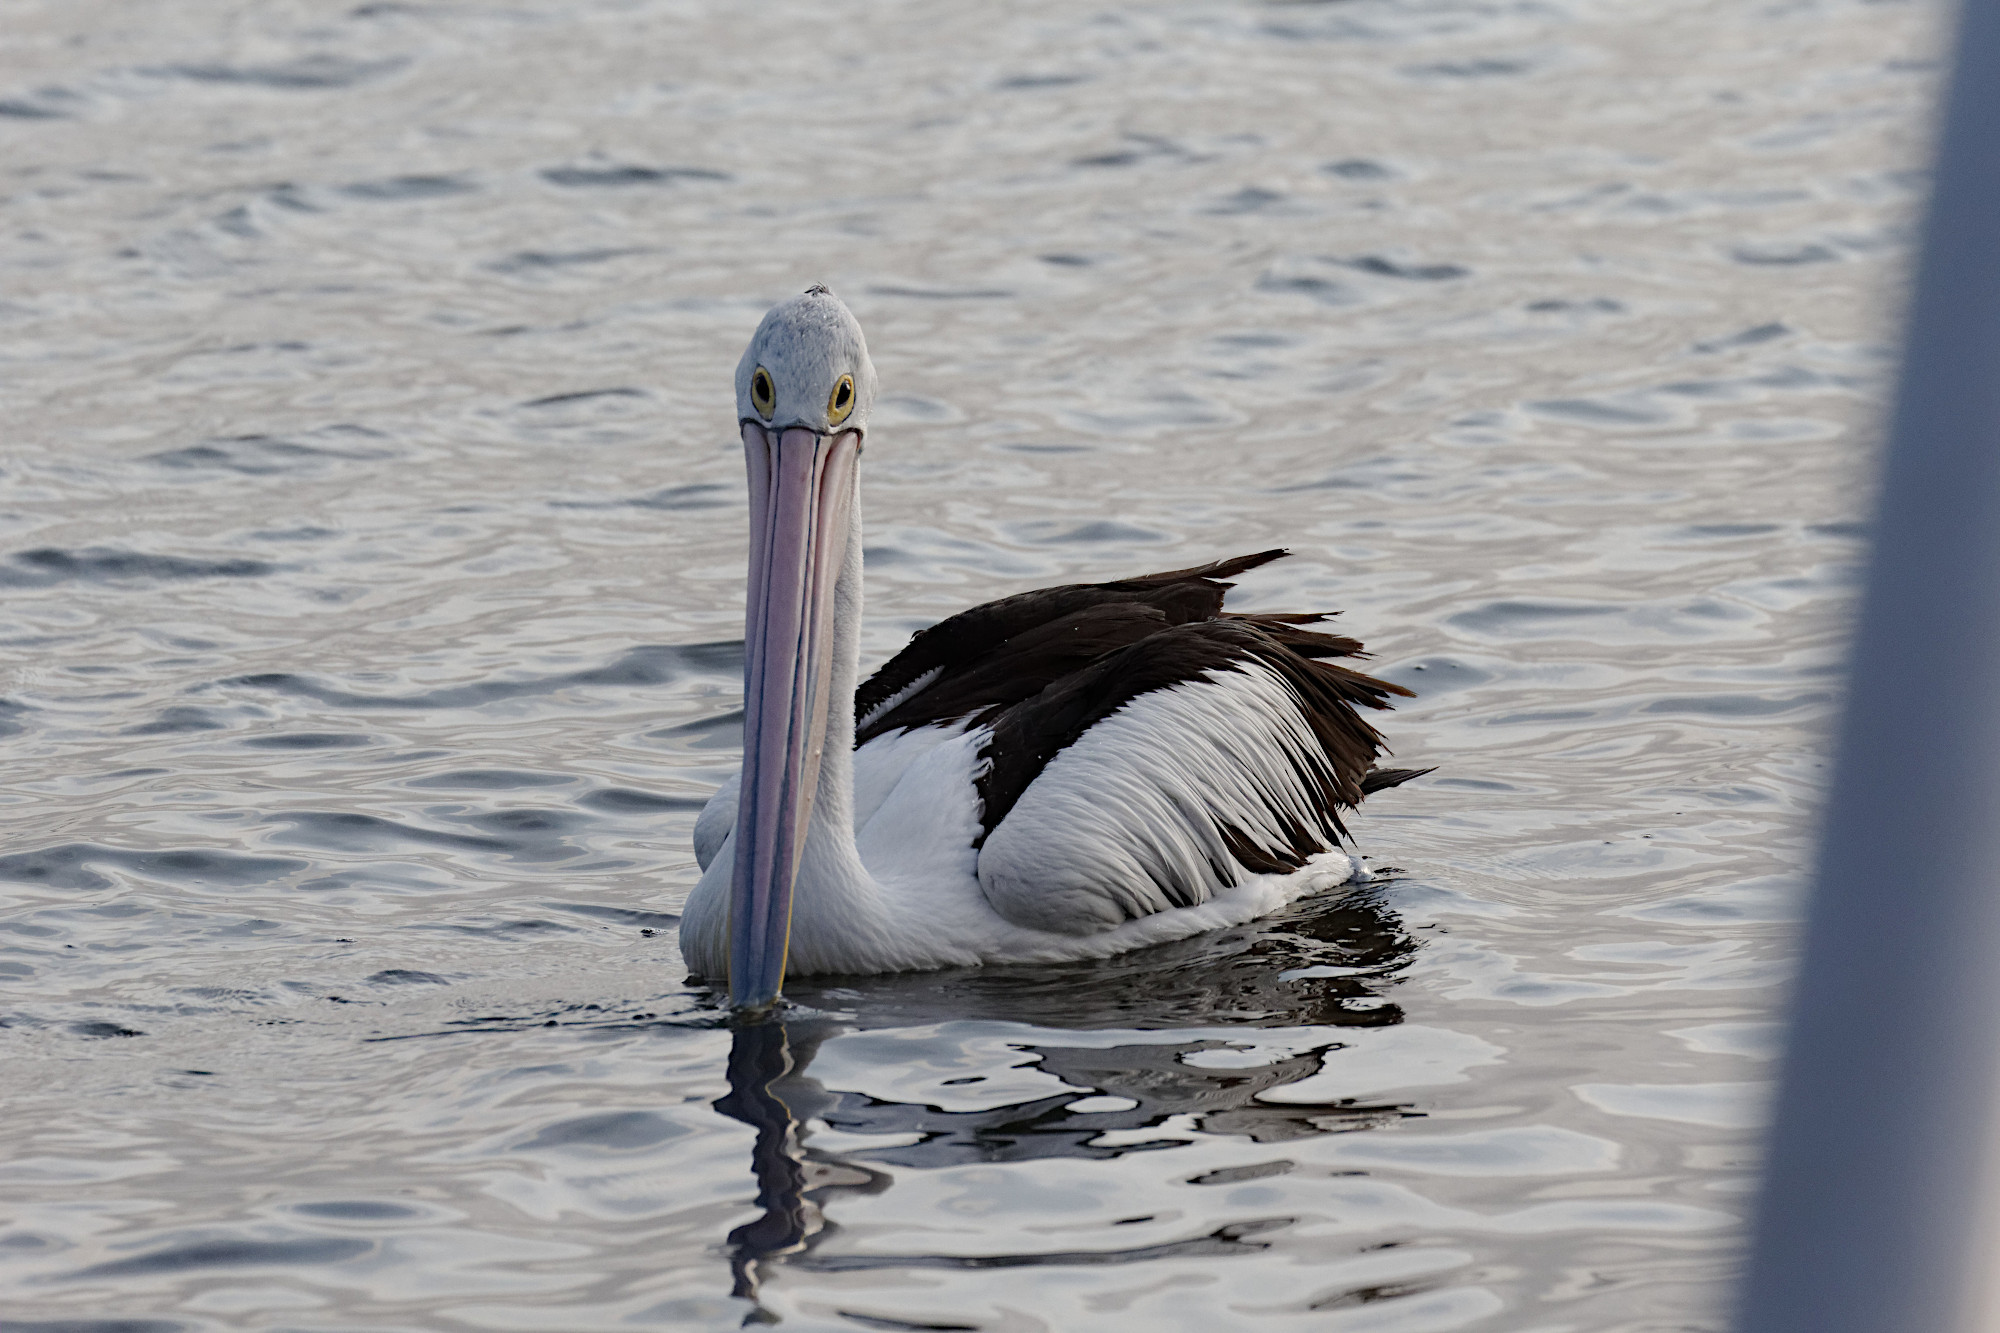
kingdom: Animalia
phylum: Chordata
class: Aves
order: Pelecaniformes
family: Pelecanidae
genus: Pelecanus
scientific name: Pelecanus conspicillatus
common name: Australian pelican
